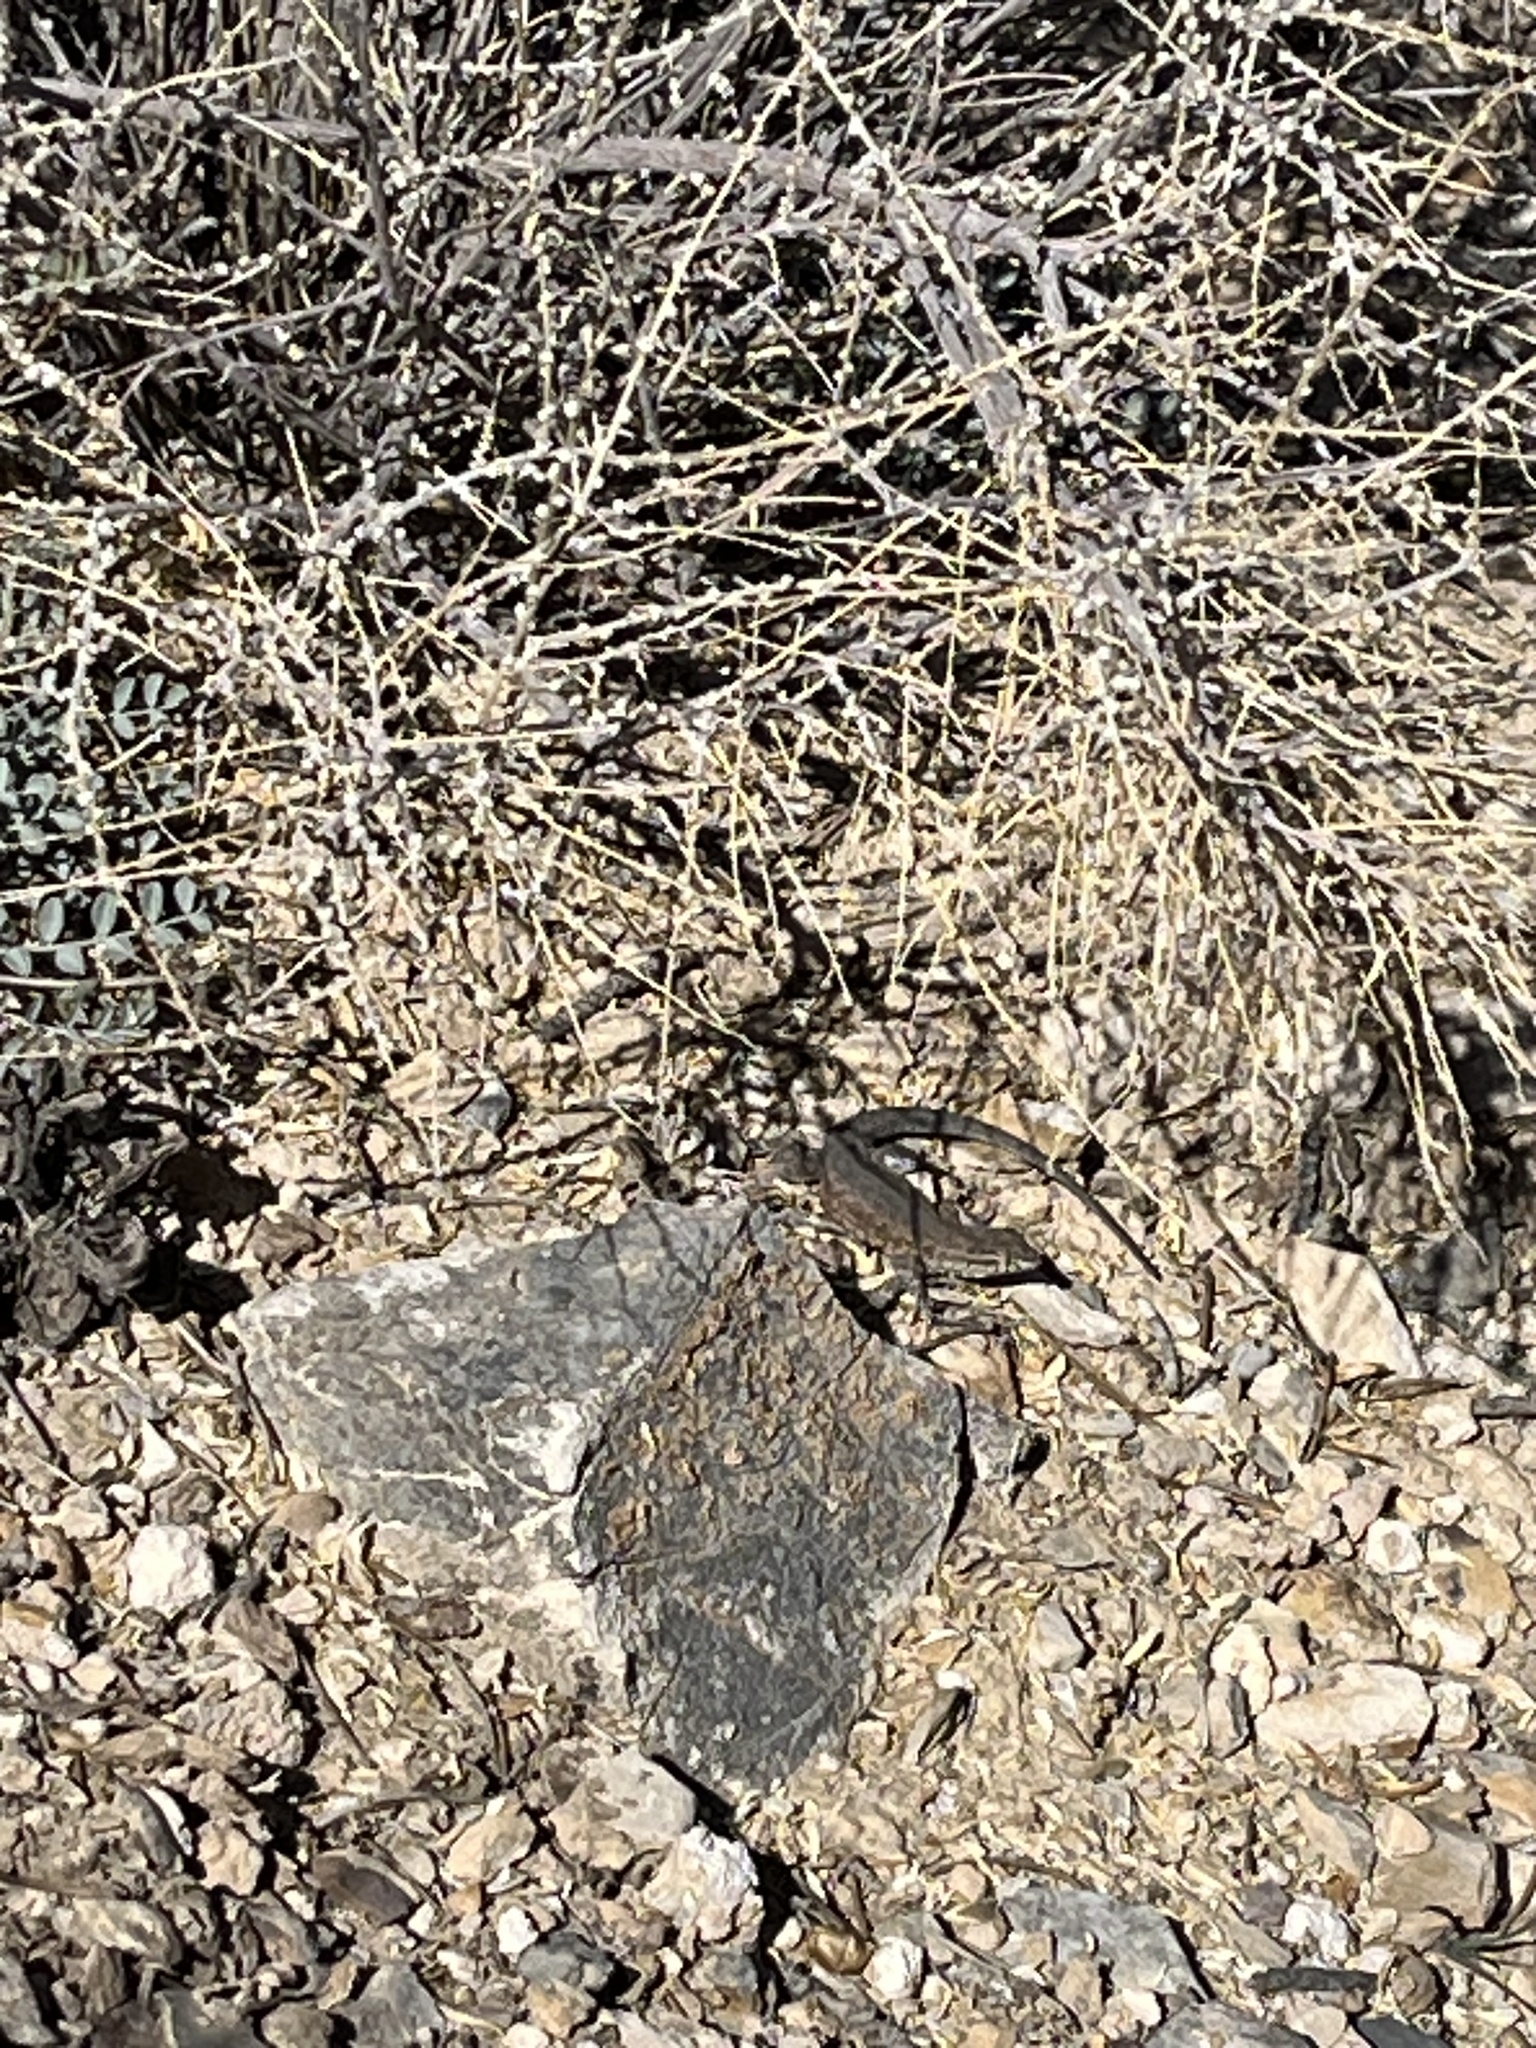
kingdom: Animalia
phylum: Chordata
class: Squamata
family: Phrynosomatidae
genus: Uta
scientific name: Uta stansburiana
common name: Side-blotched lizard
